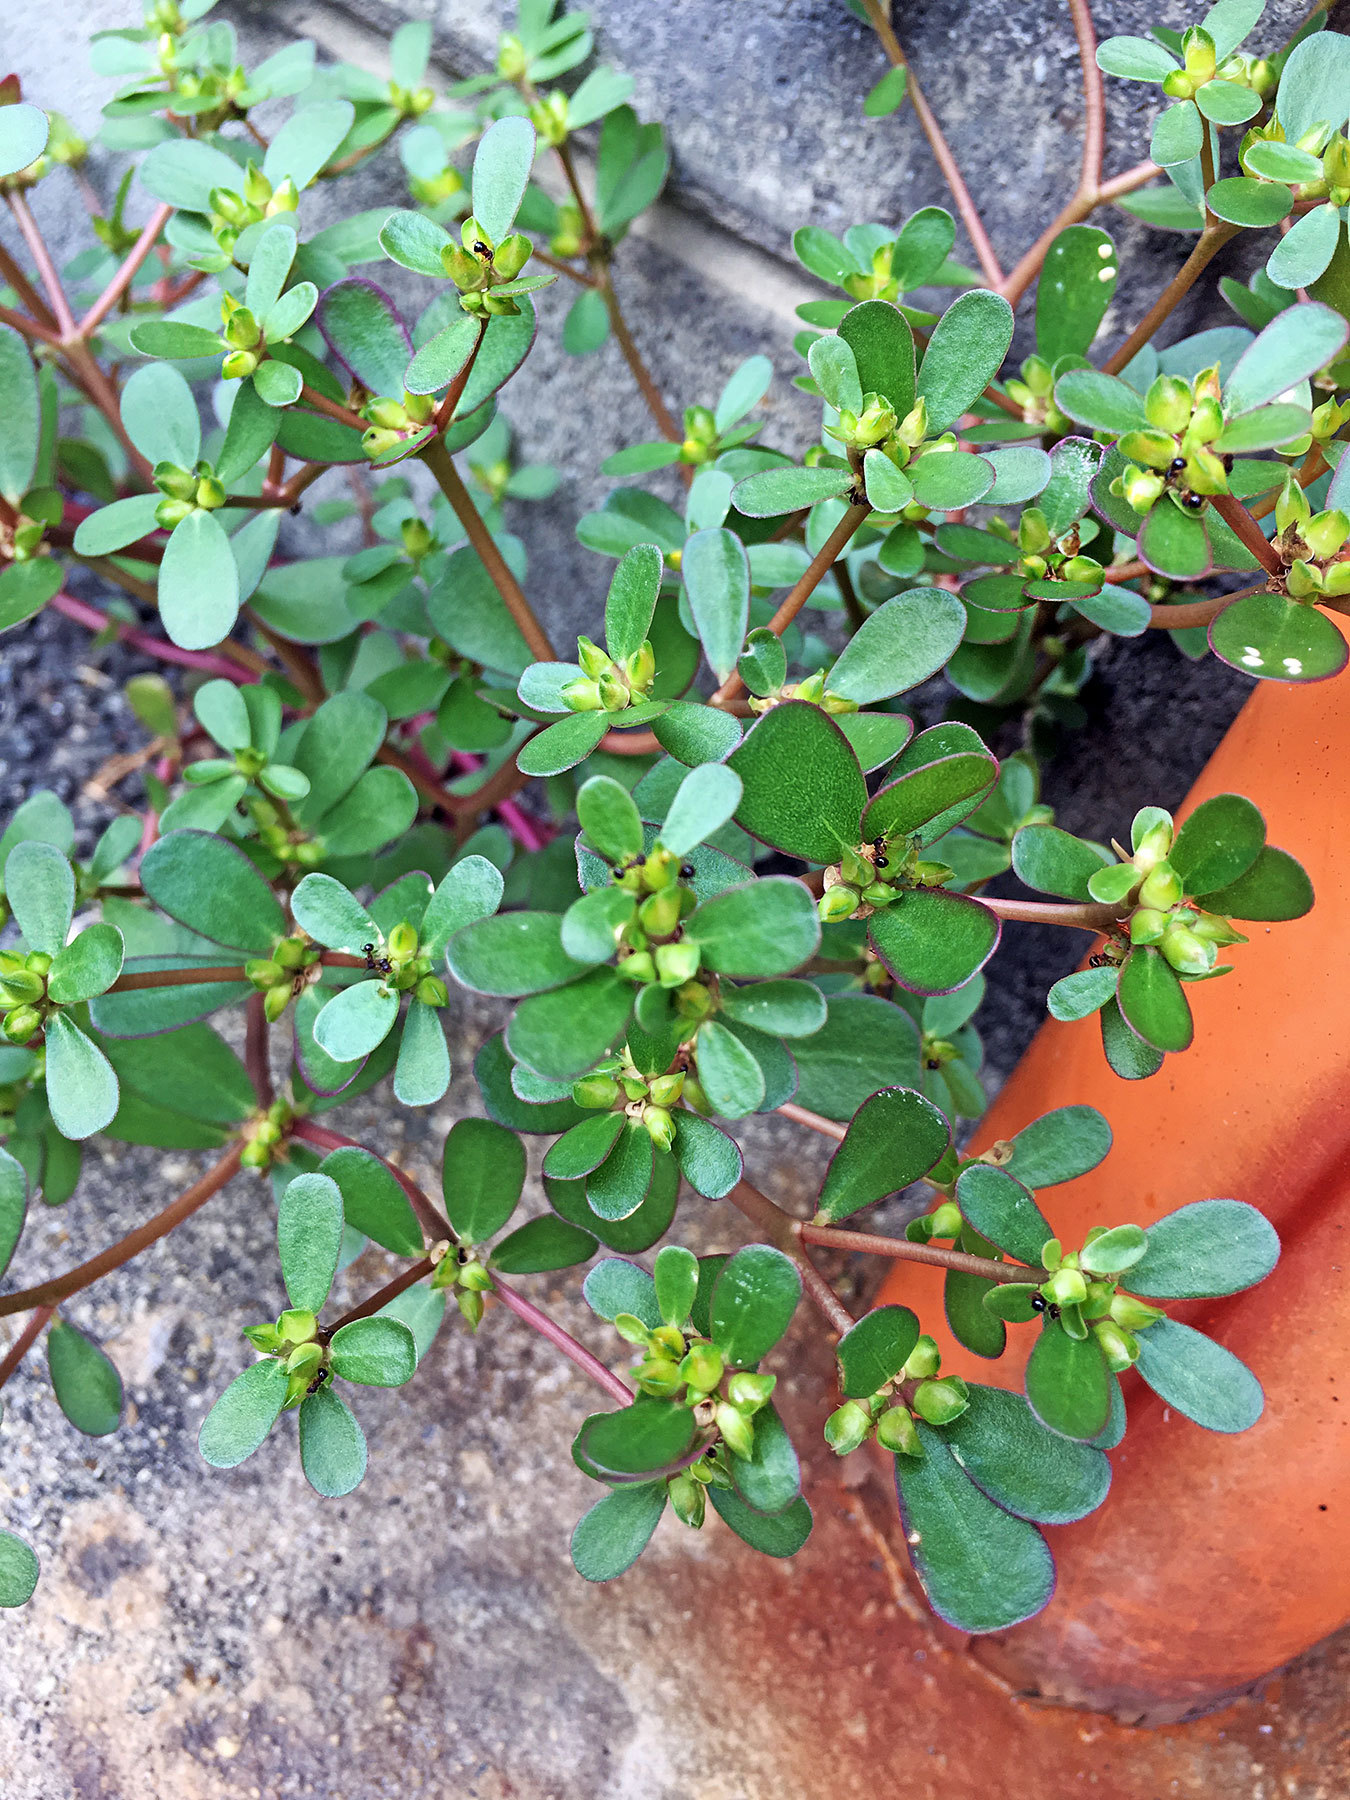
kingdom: Plantae
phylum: Tracheophyta
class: Magnoliopsida
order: Caryophyllales
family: Portulacaceae
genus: Portulaca
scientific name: Portulaca oleracea
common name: Common purslane
